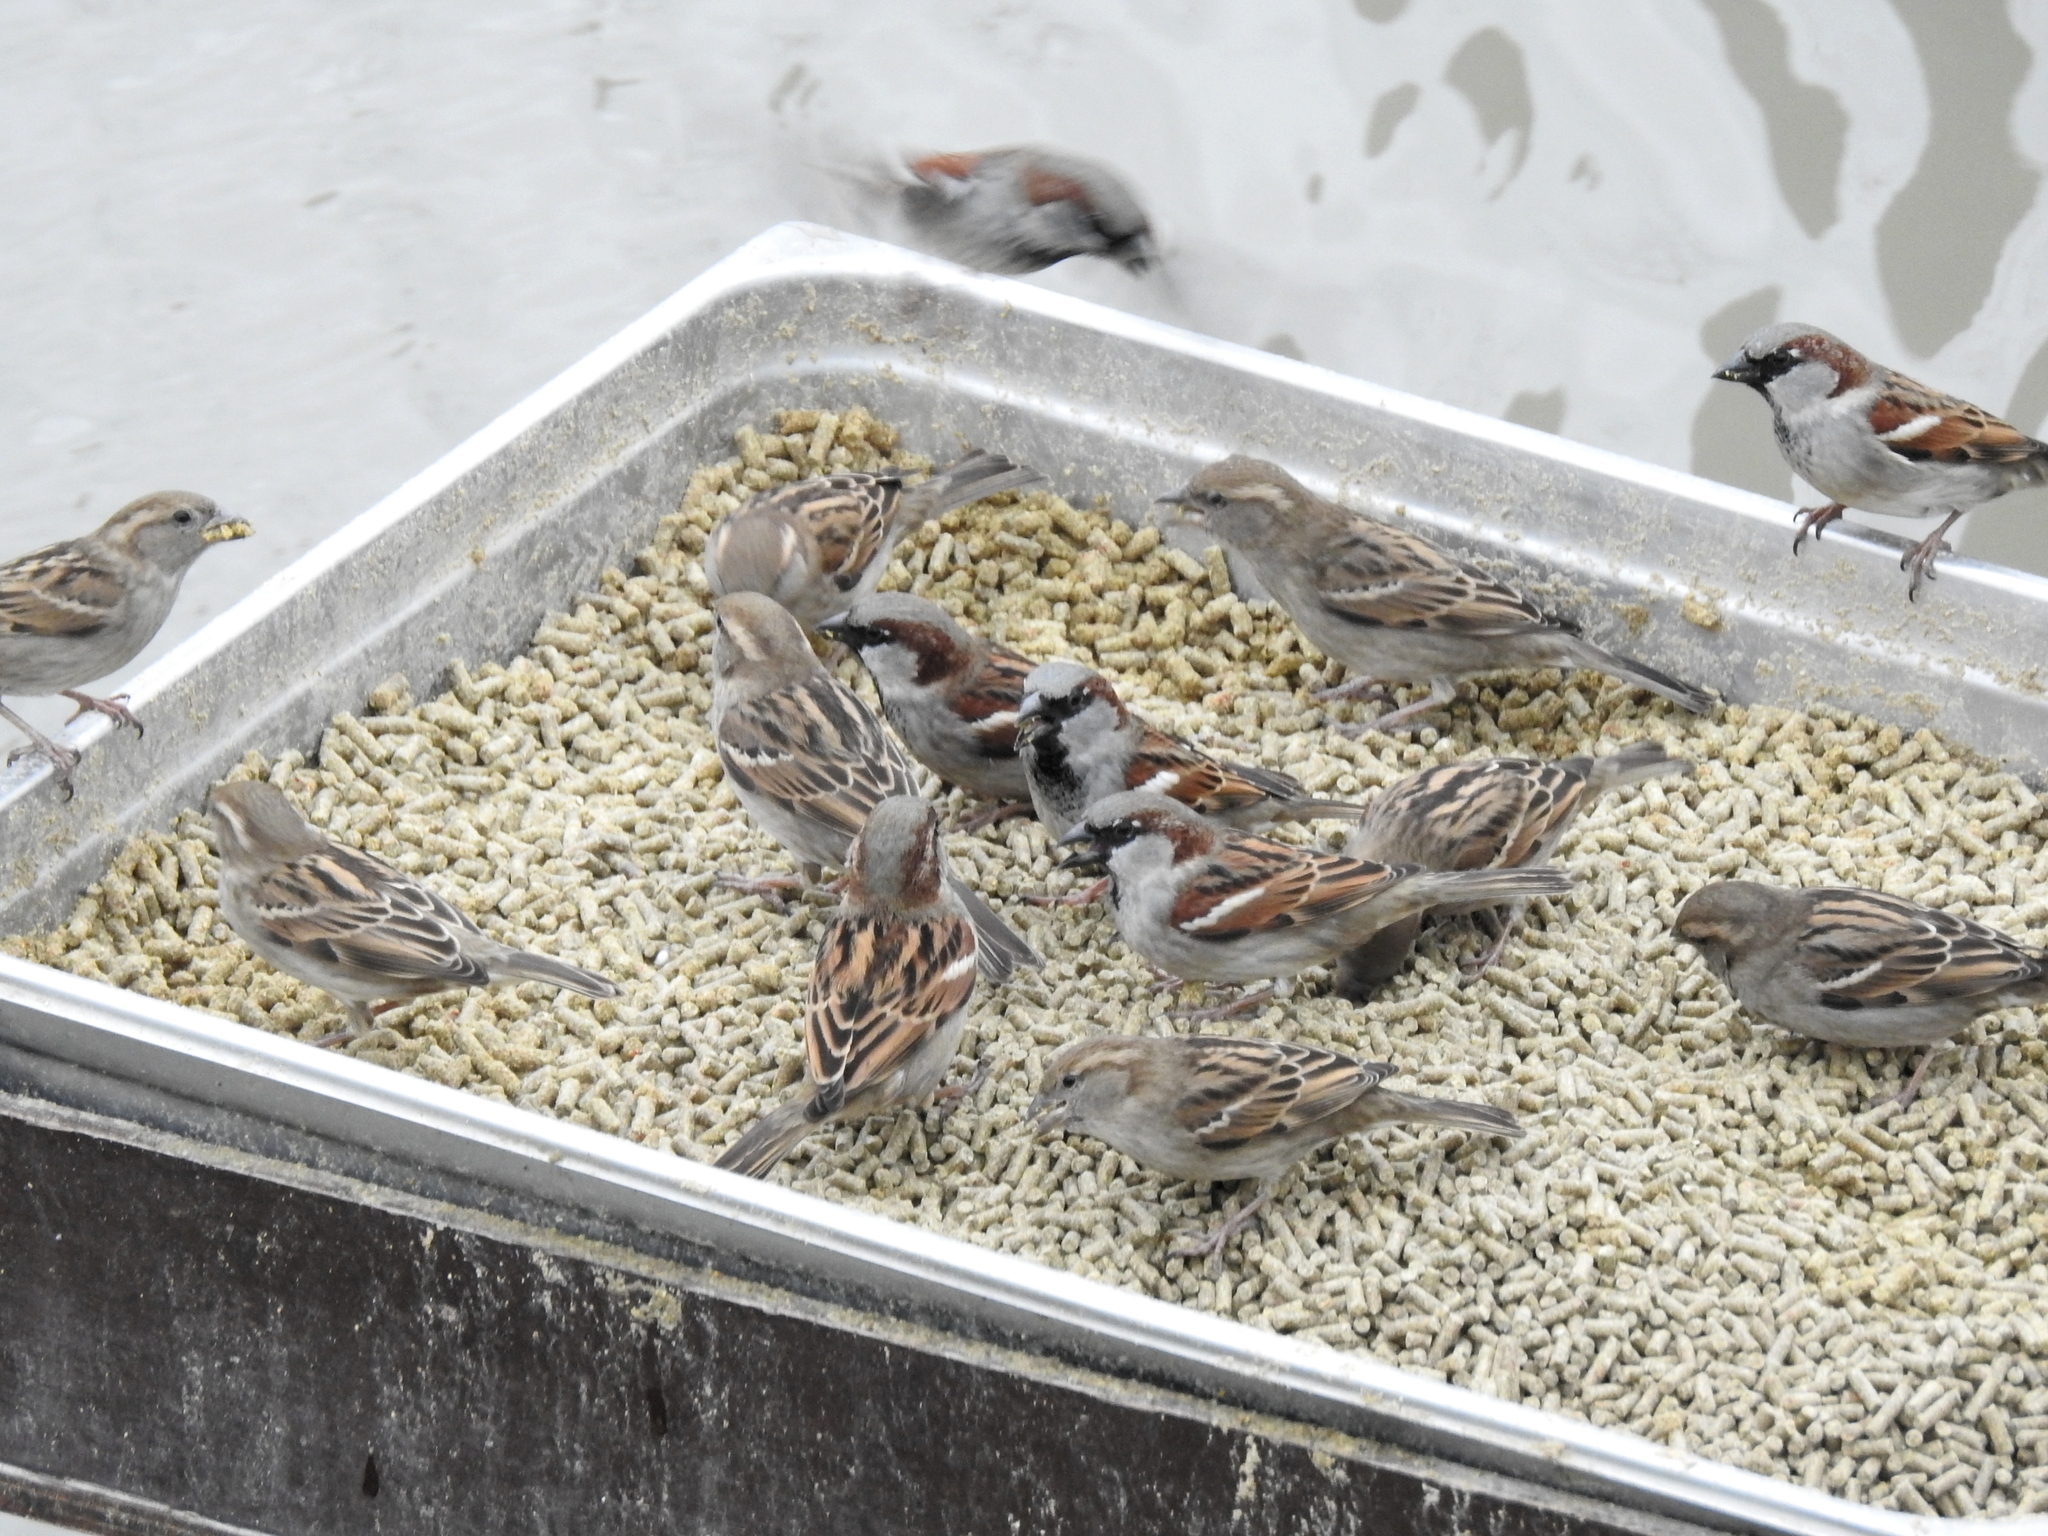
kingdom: Animalia
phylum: Chordata
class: Aves
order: Passeriformes
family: Passeridae
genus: Passer
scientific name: Passer domesticus
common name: House sparrow
